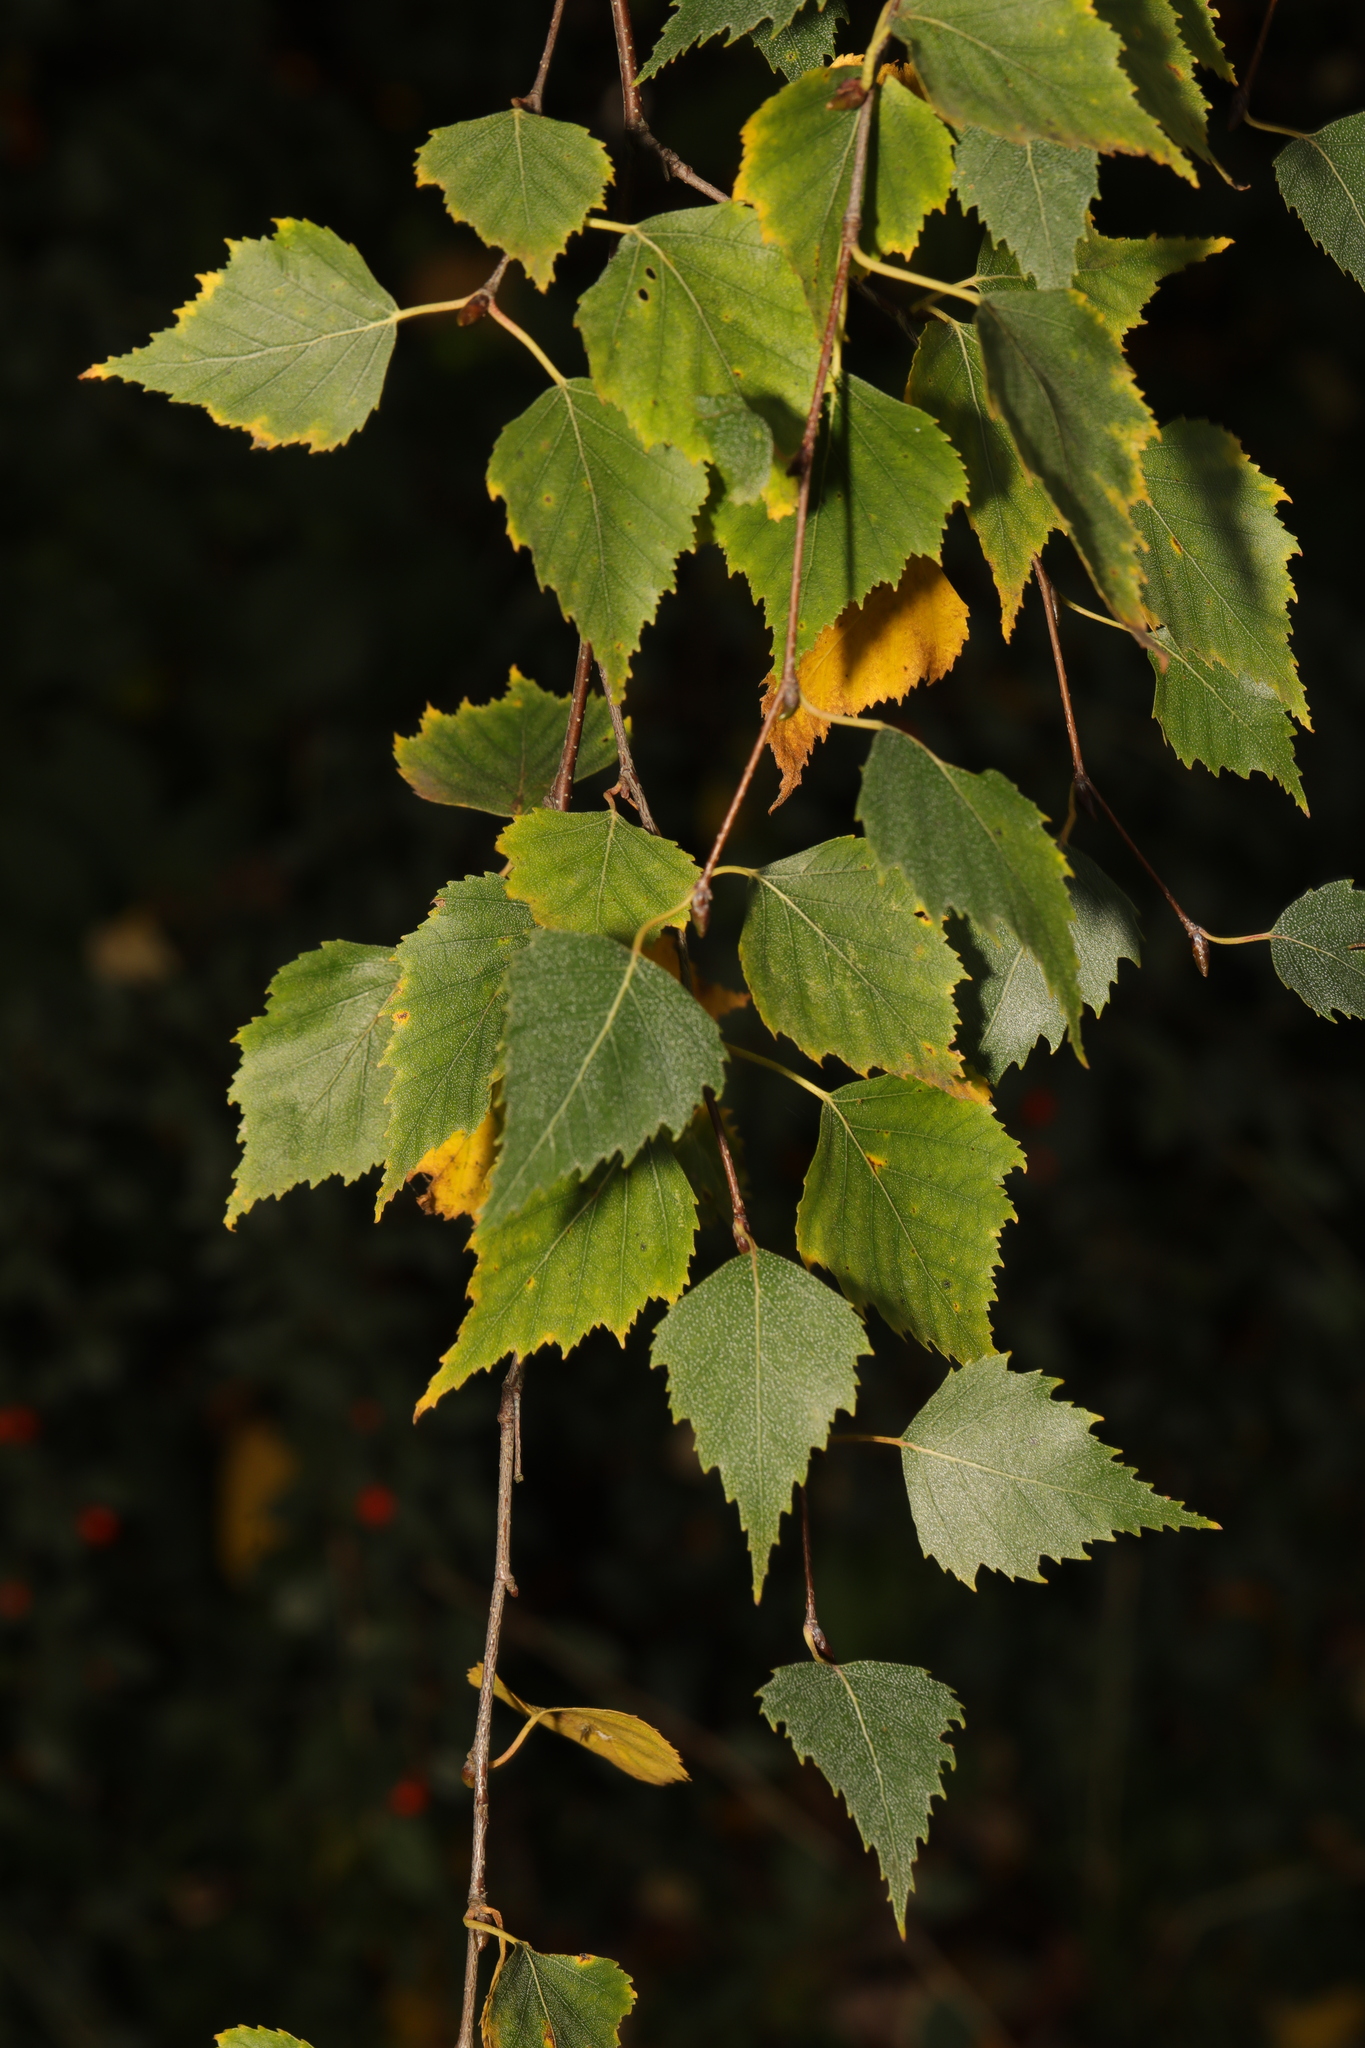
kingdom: Plantae
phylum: Tracheophyta
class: Magnoliopsida
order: Fagales
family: Betulaceae
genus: Betula
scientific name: Betula pendula
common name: Silver birch
